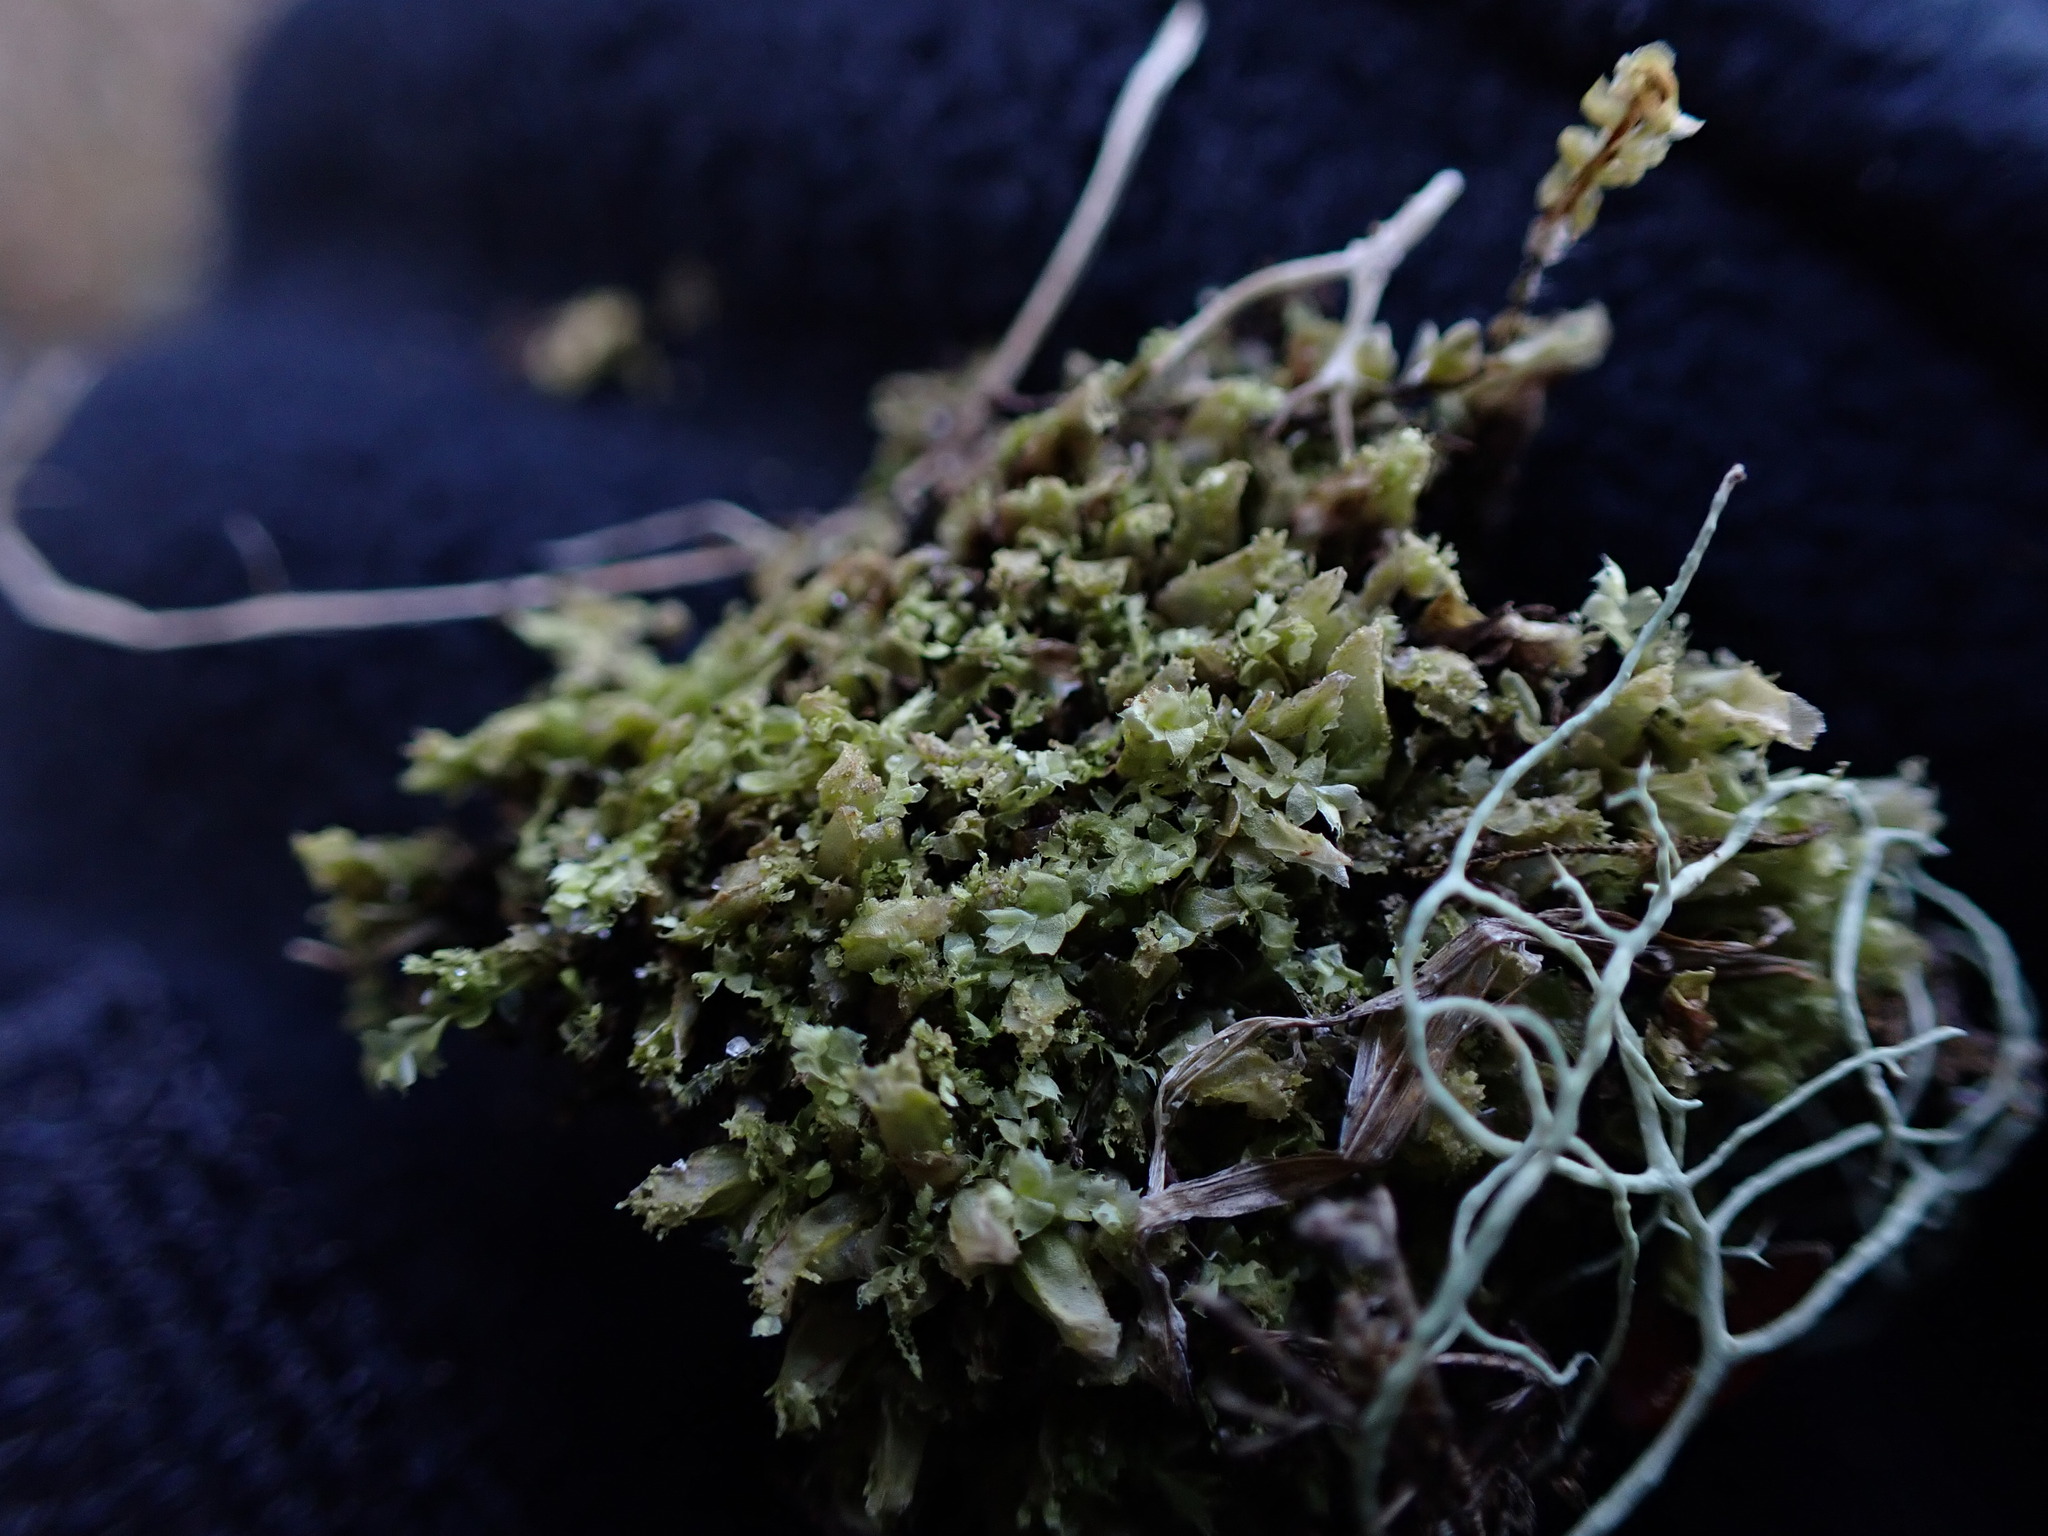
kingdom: Plantae
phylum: Marchantiophyta
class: Jungermanniopsida
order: Jungermanniales
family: Lophocoleaceae
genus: Lophocolea
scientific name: Lophocolea bidentata
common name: Bifid crestwort
